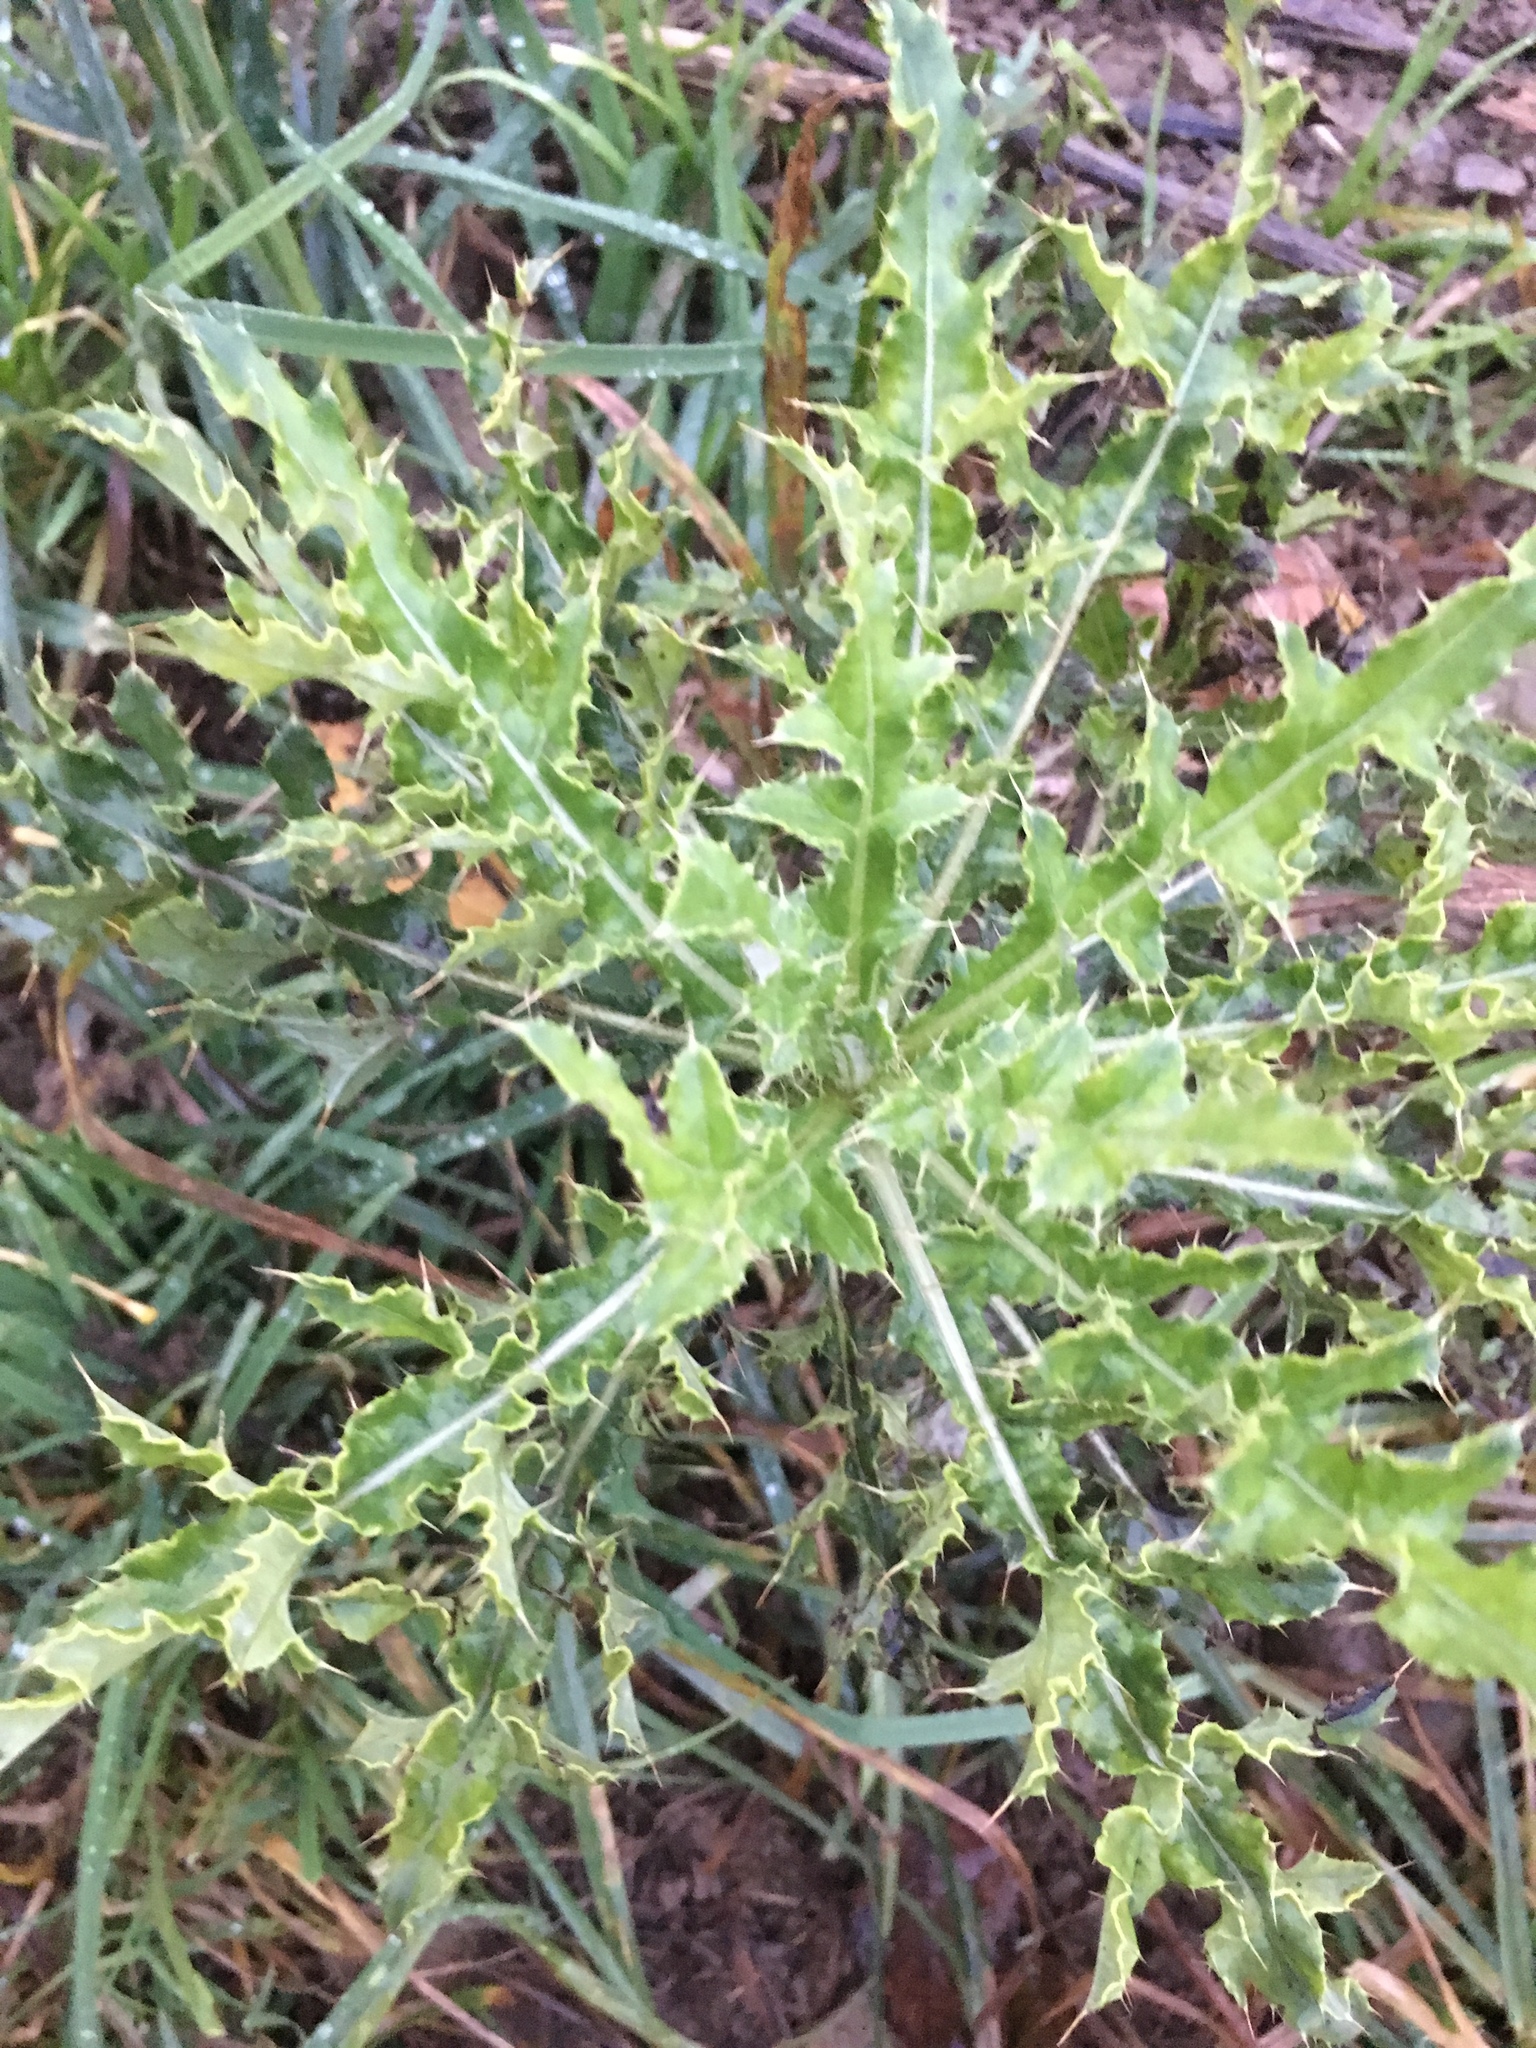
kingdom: Plantae
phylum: Tracheophyta
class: Magnoliopsida
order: Asterales
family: Asteraceae
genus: Cirsium
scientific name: Cirsium arvense
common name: Creeping thistle
